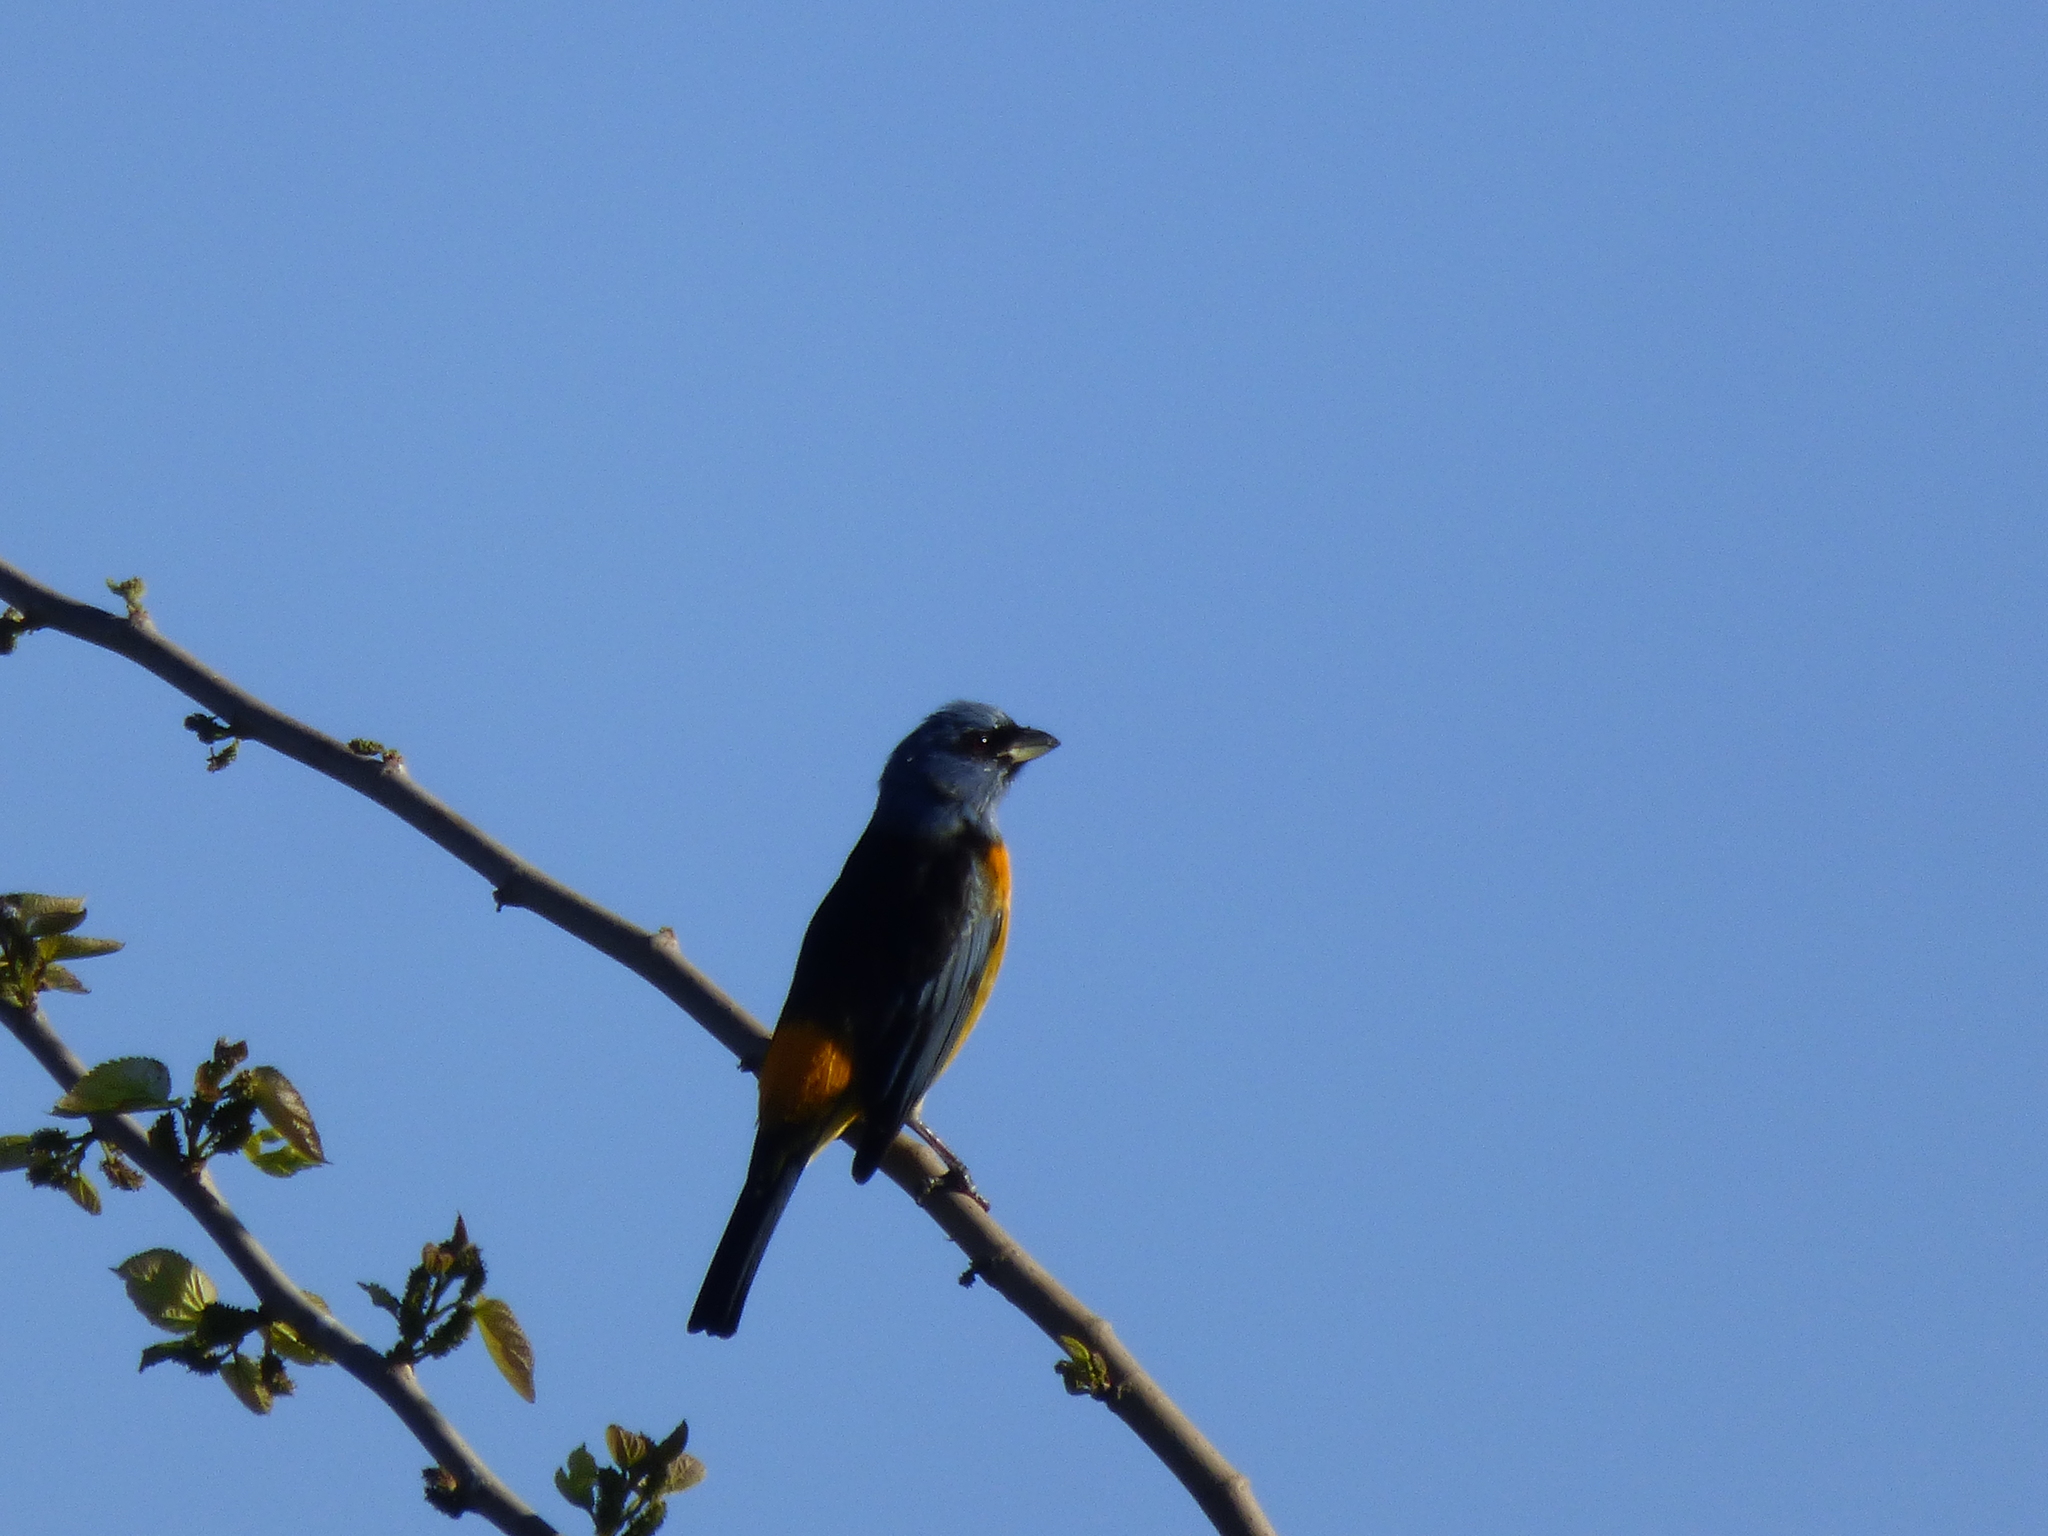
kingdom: Animalia
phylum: Chordata
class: Aves
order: Passeriformes
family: Thraupidae
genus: Rauenia
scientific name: Rauenia bonariensis
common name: Blue-and-yellow tanager
